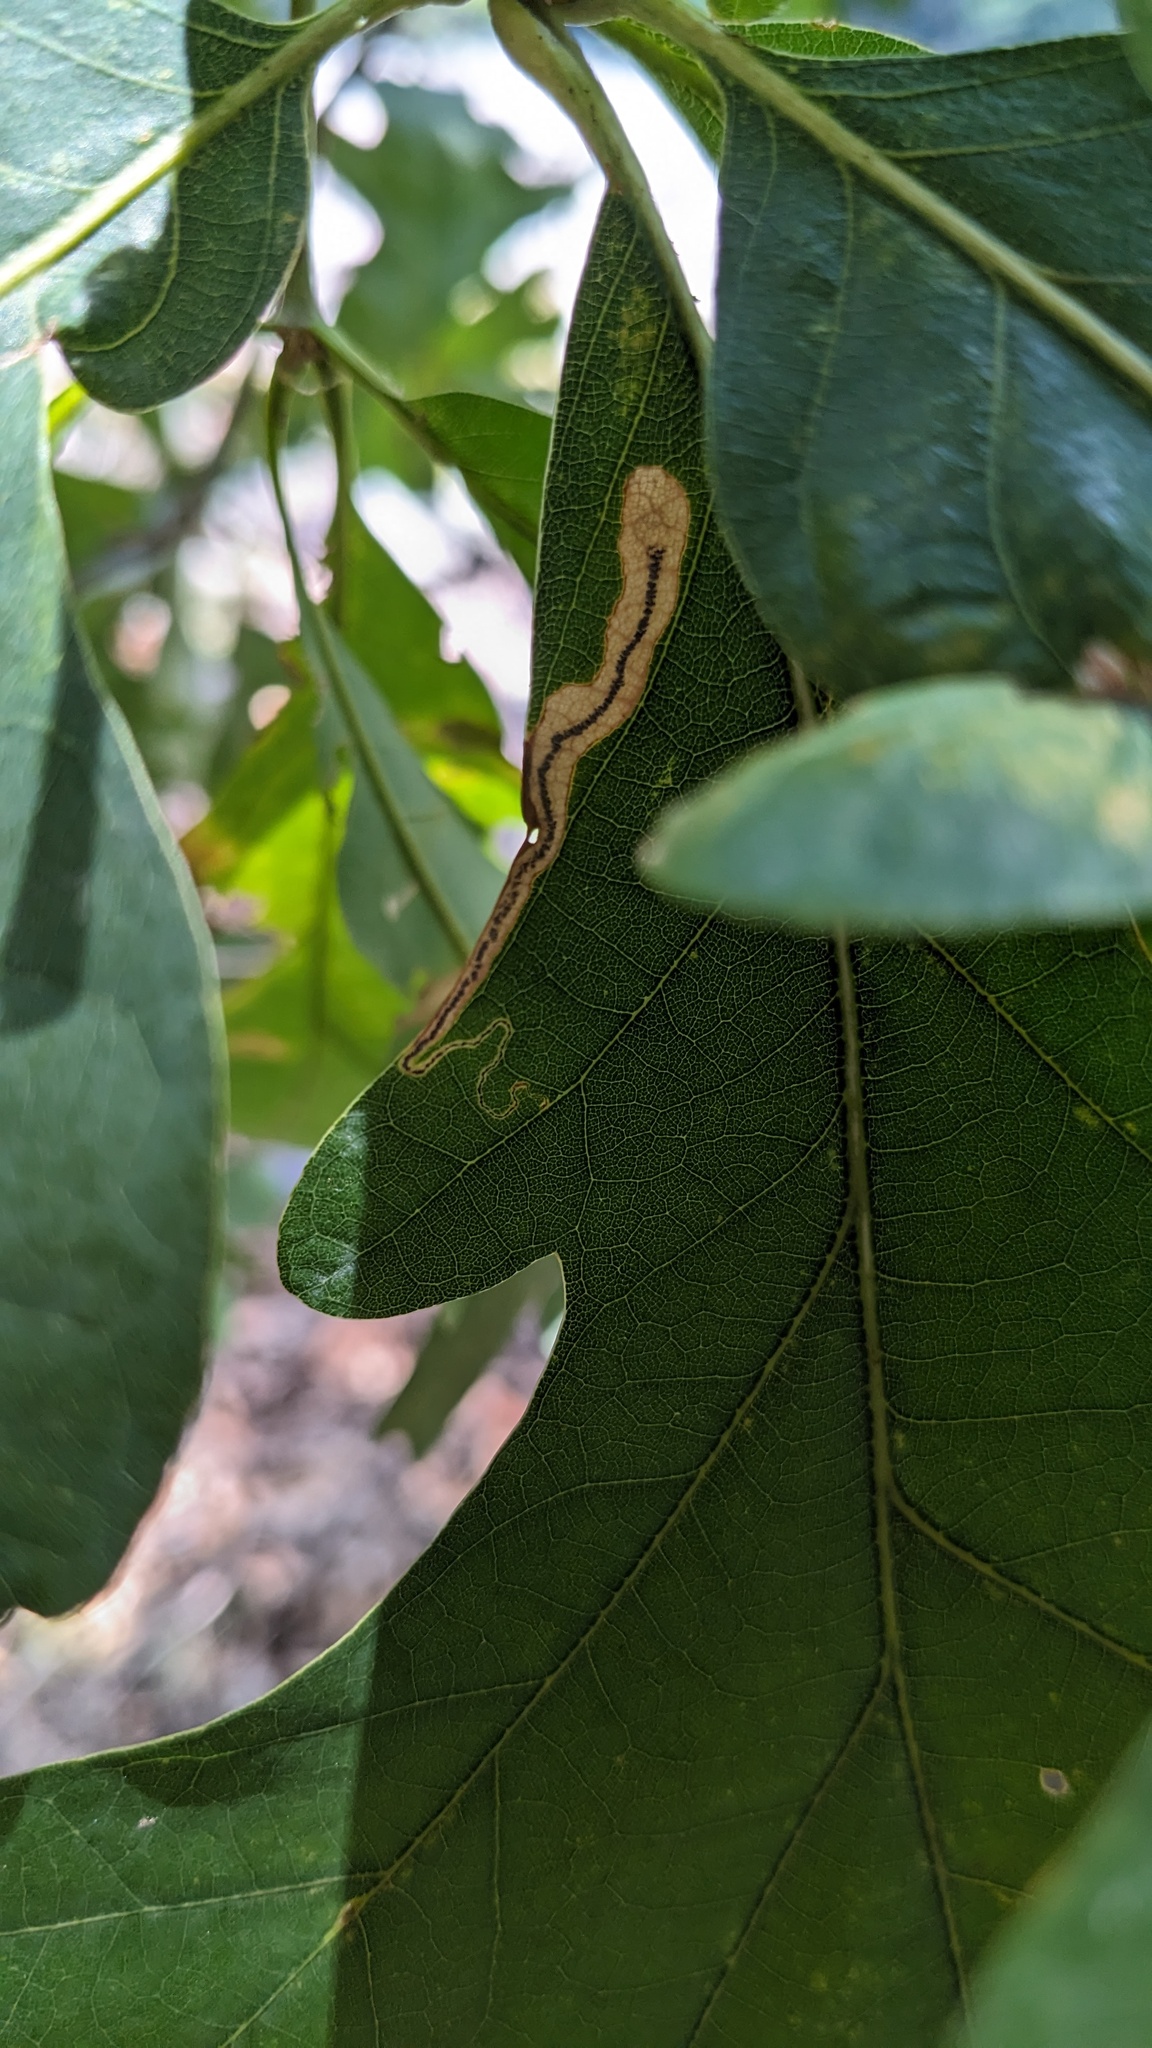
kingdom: Animalia
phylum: Arthropoda
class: Insecta
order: Lepidoptera
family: Nepticulidae
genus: Stigmella
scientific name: Stigmella
